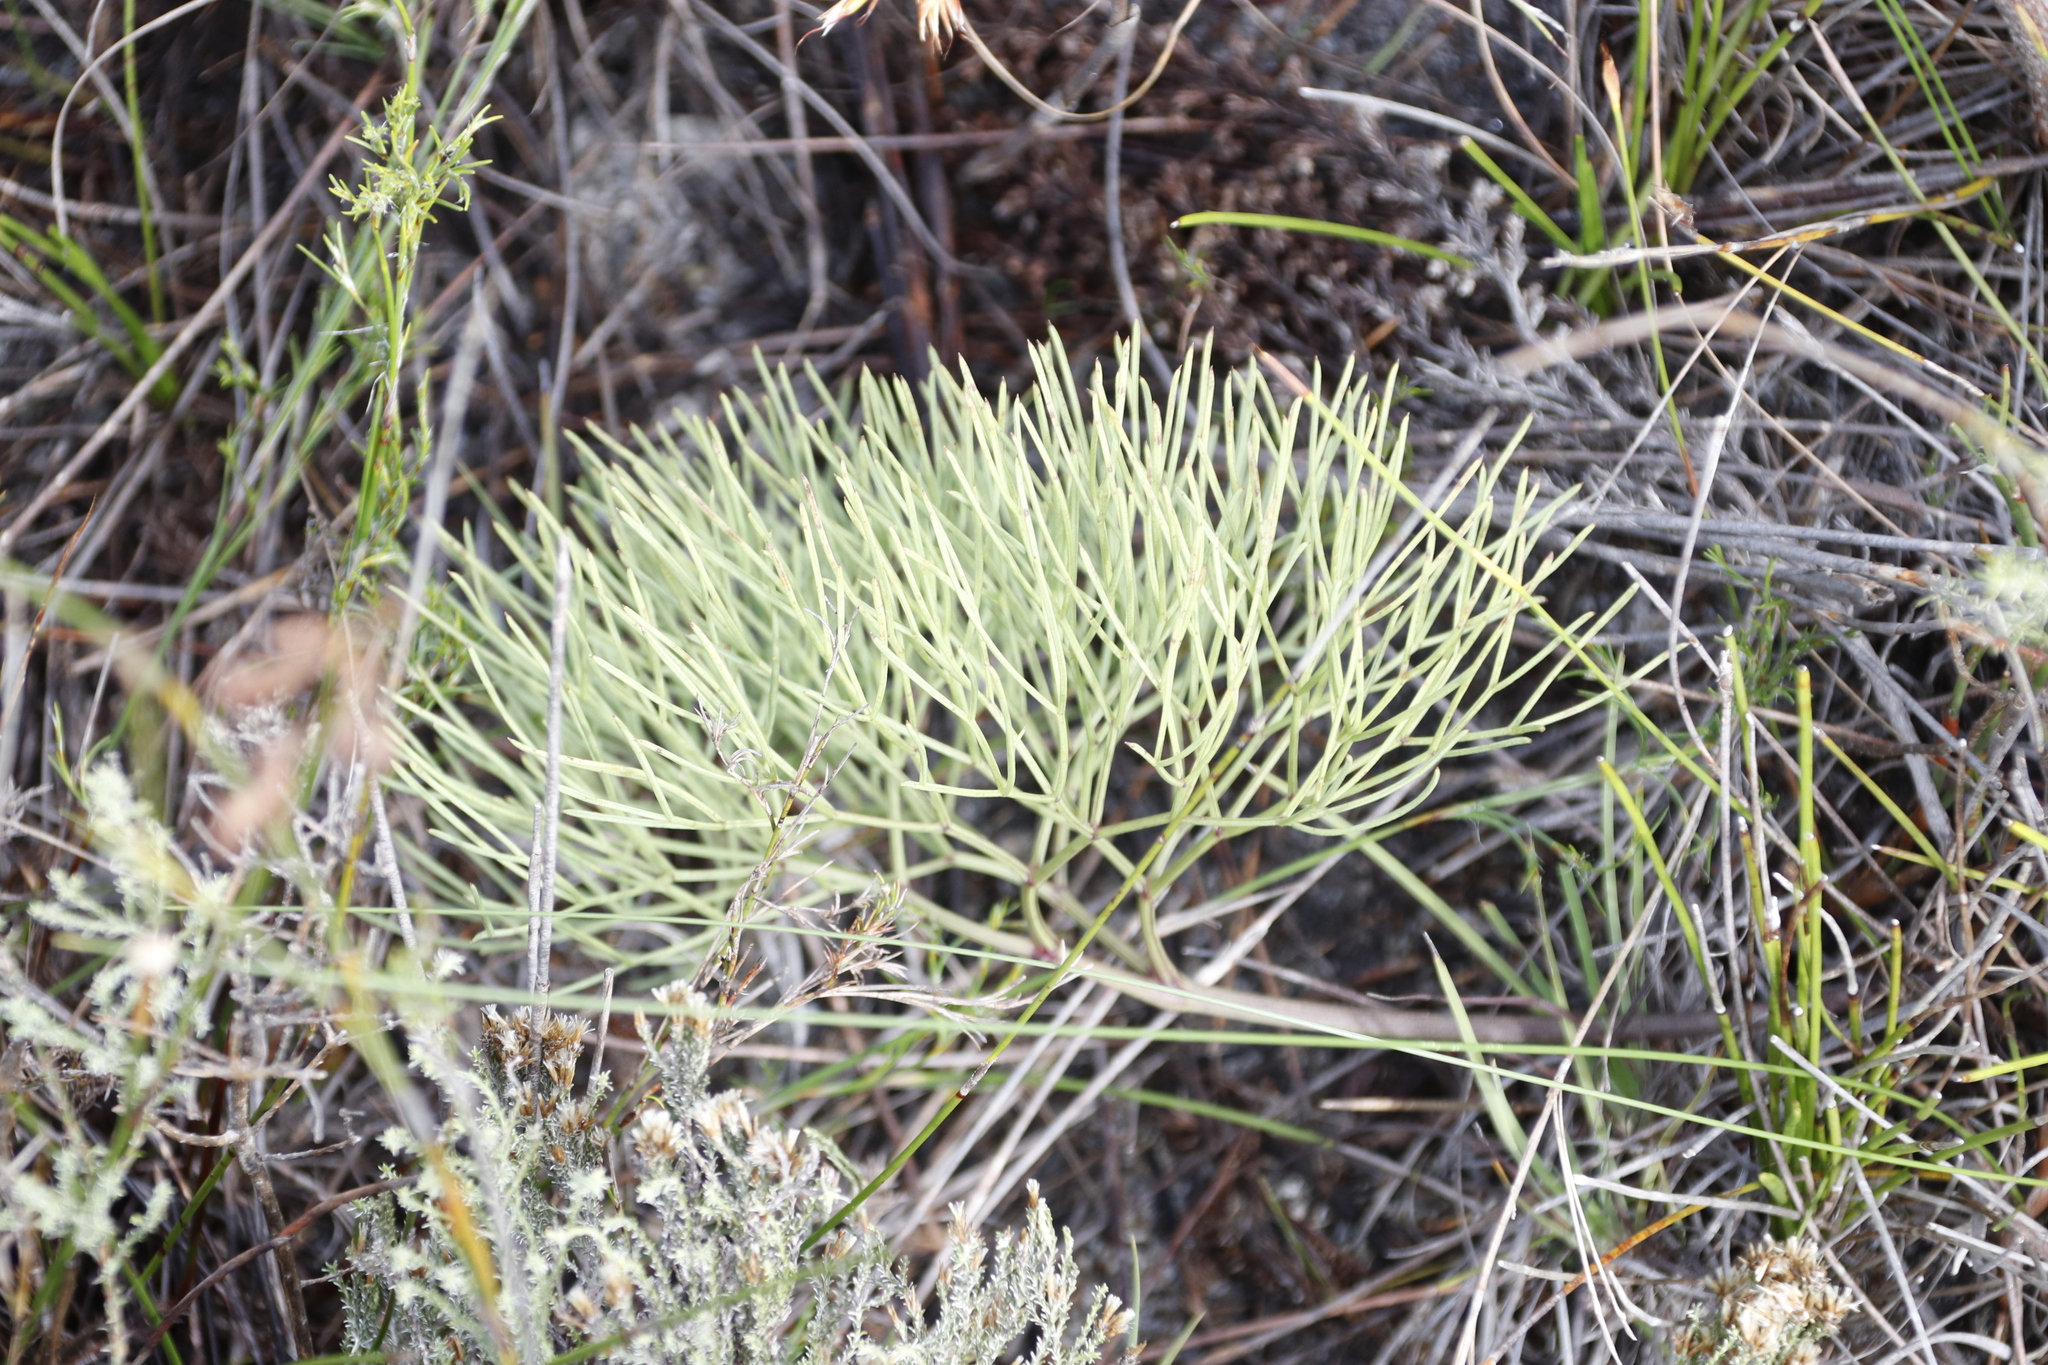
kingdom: Plantae
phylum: Tracheophyta
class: Magnoliopsida
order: Apiales
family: Apiaceae
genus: Nanobubon
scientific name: Nanobubon strictum
